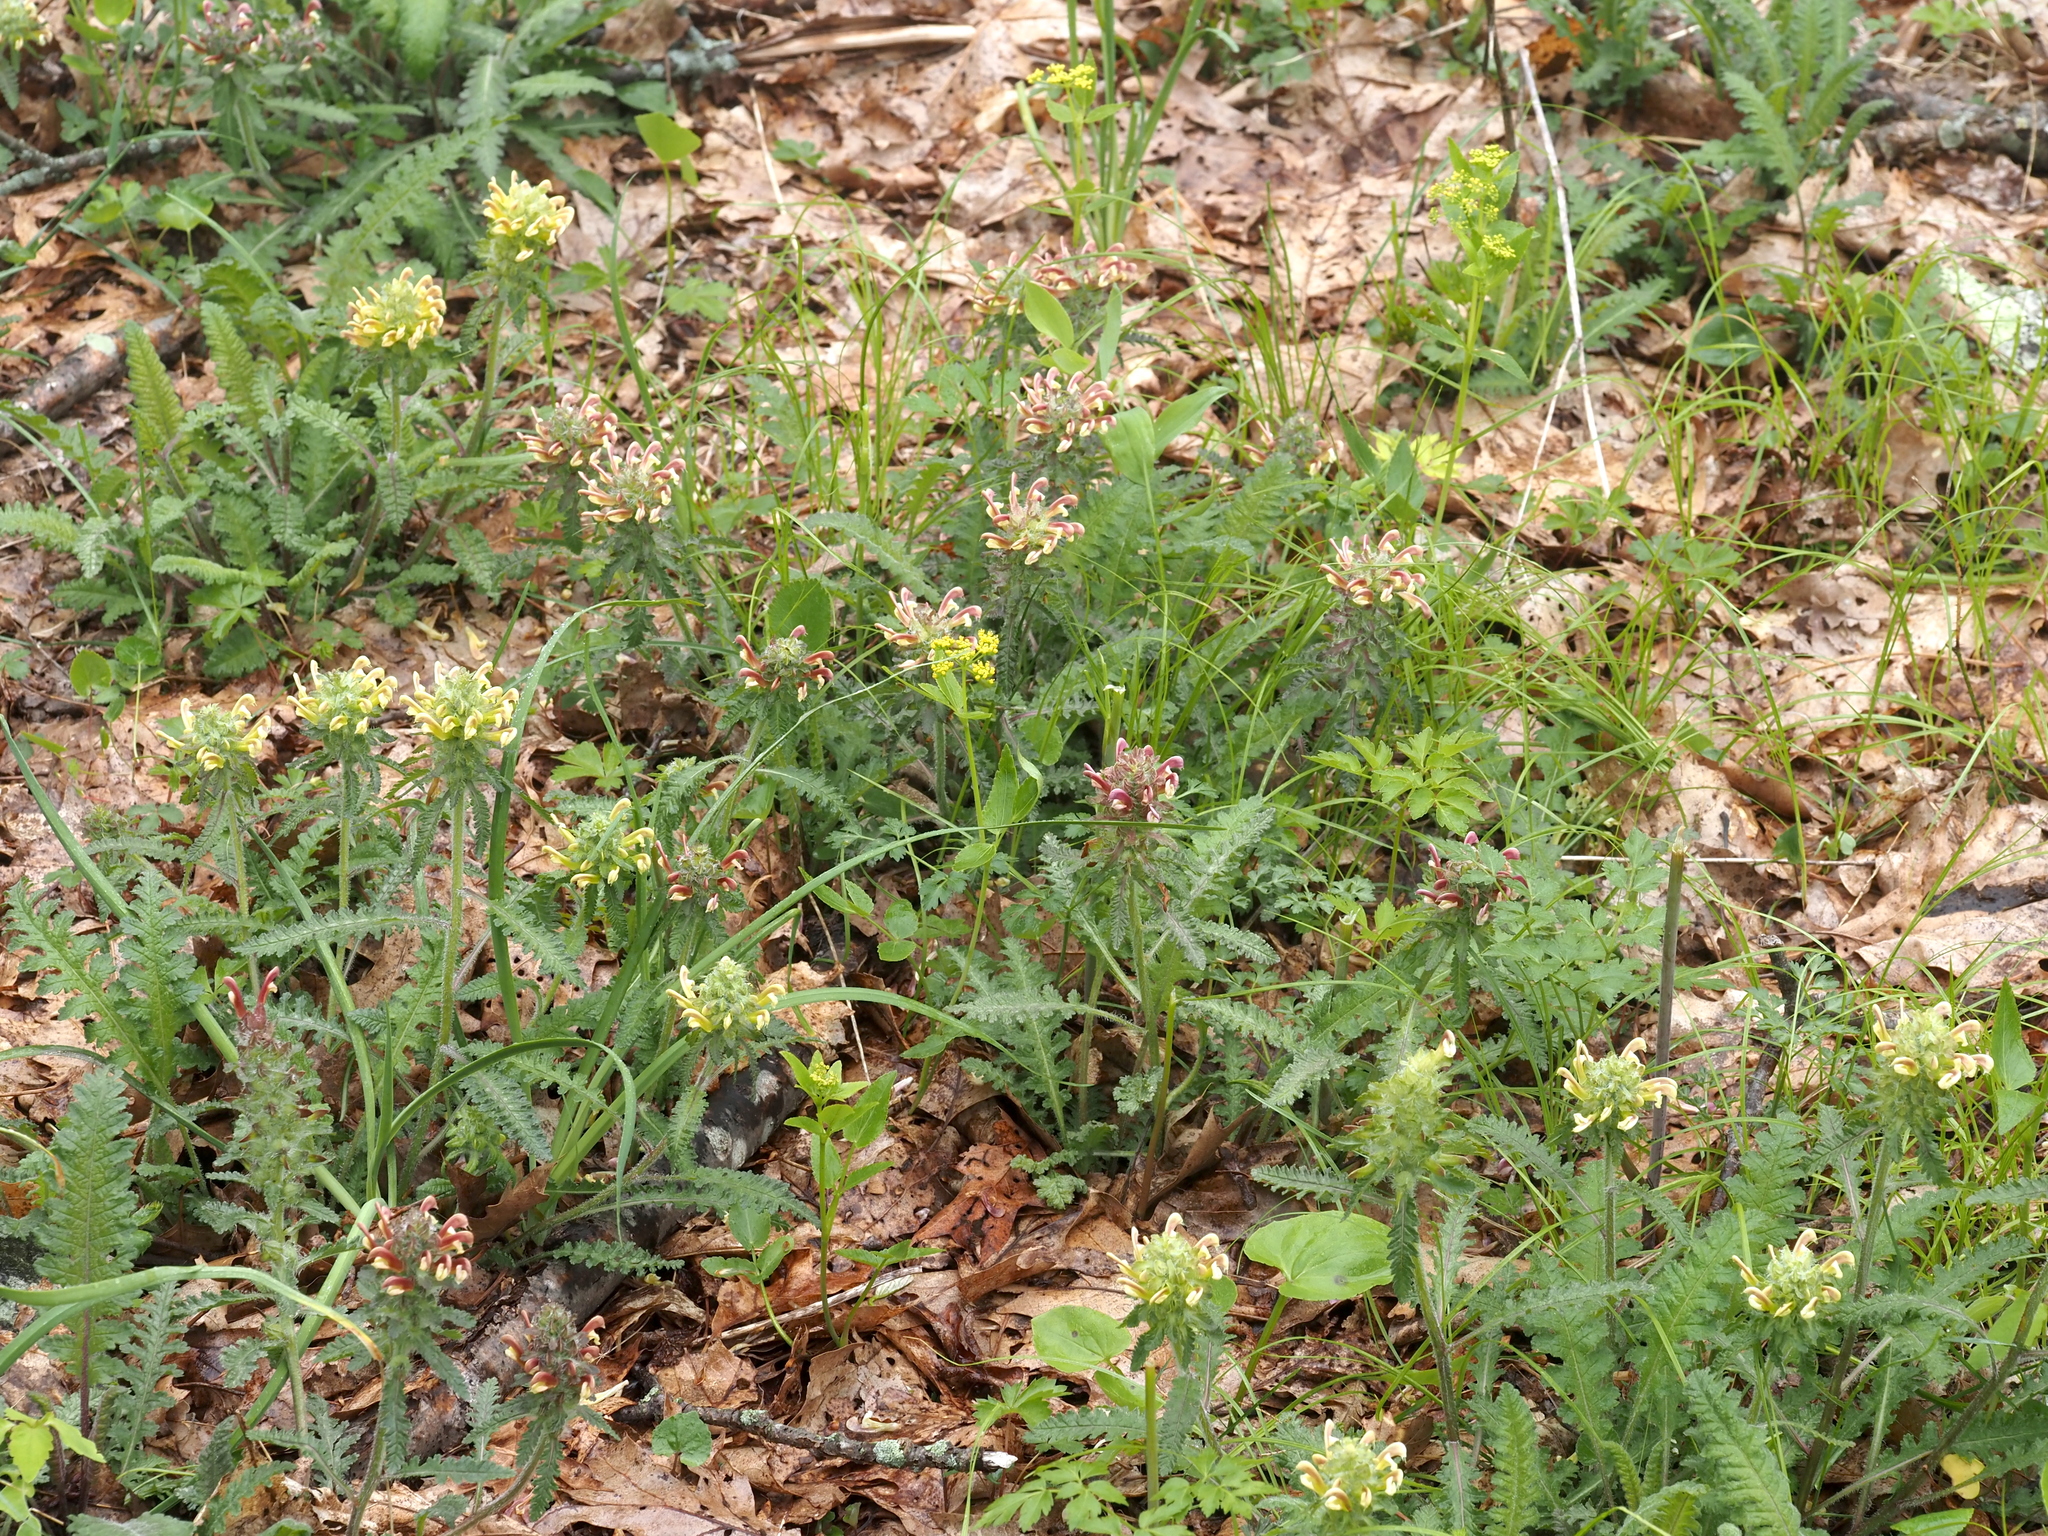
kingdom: Plantae
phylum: Tracheophyta
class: Magnoliopsida
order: Lamiales
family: Orobanchaceae
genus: Pedicularis
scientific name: Pedicularis canadensis
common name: Early lousewort
